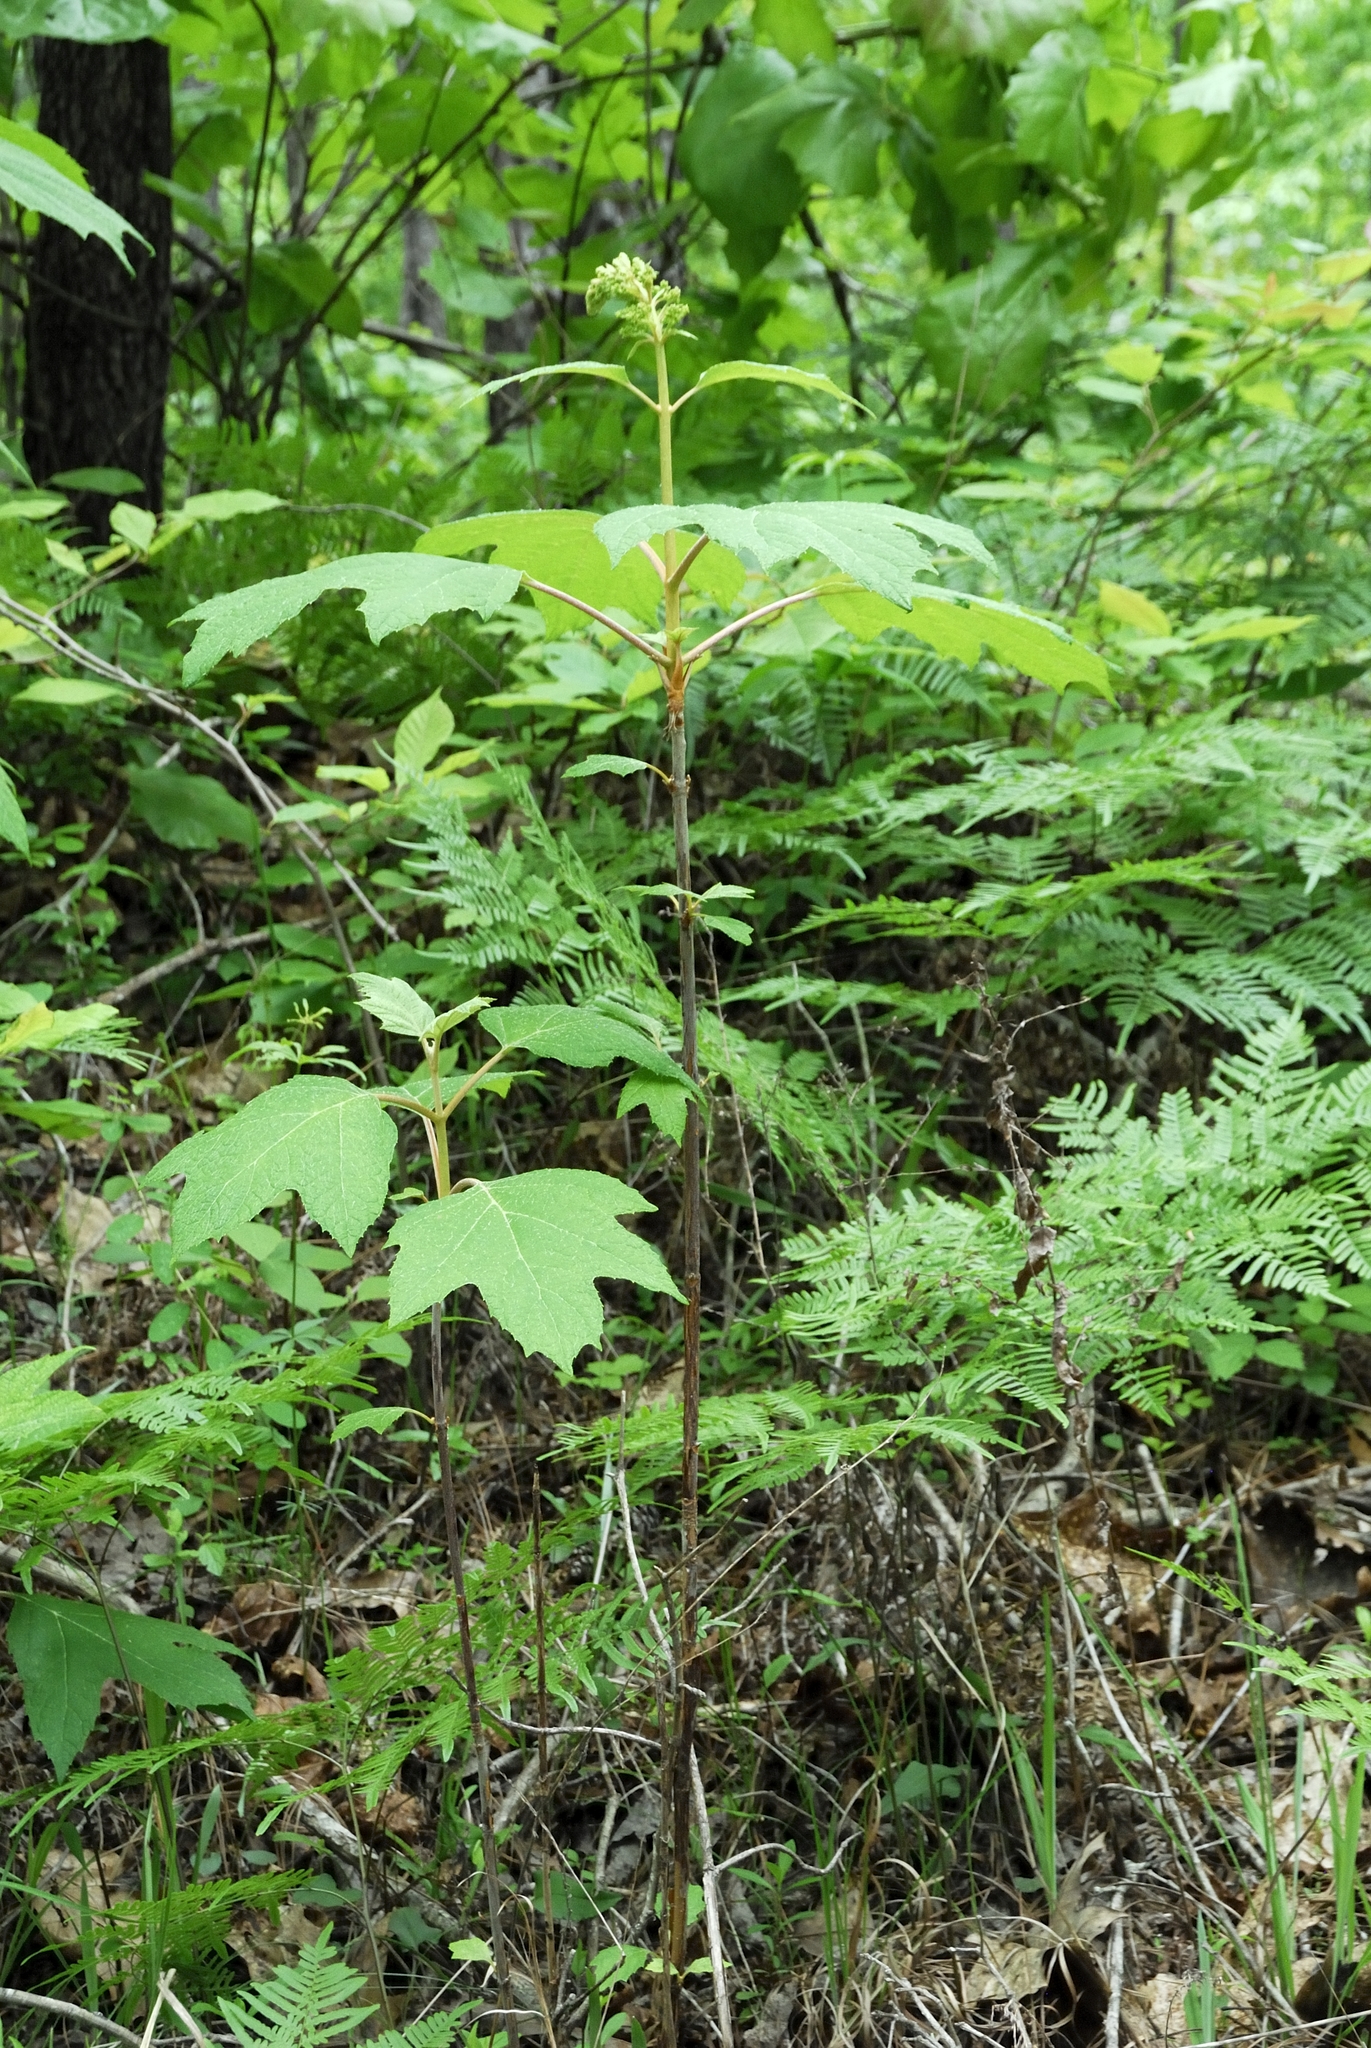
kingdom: Plantae
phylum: Tracheophyta
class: Magnoliopsida
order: Cornales
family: Hydrangeaceae
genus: Hydrangea
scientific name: Hydrangea quercifolia
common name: Oak-leaf hydrangea
